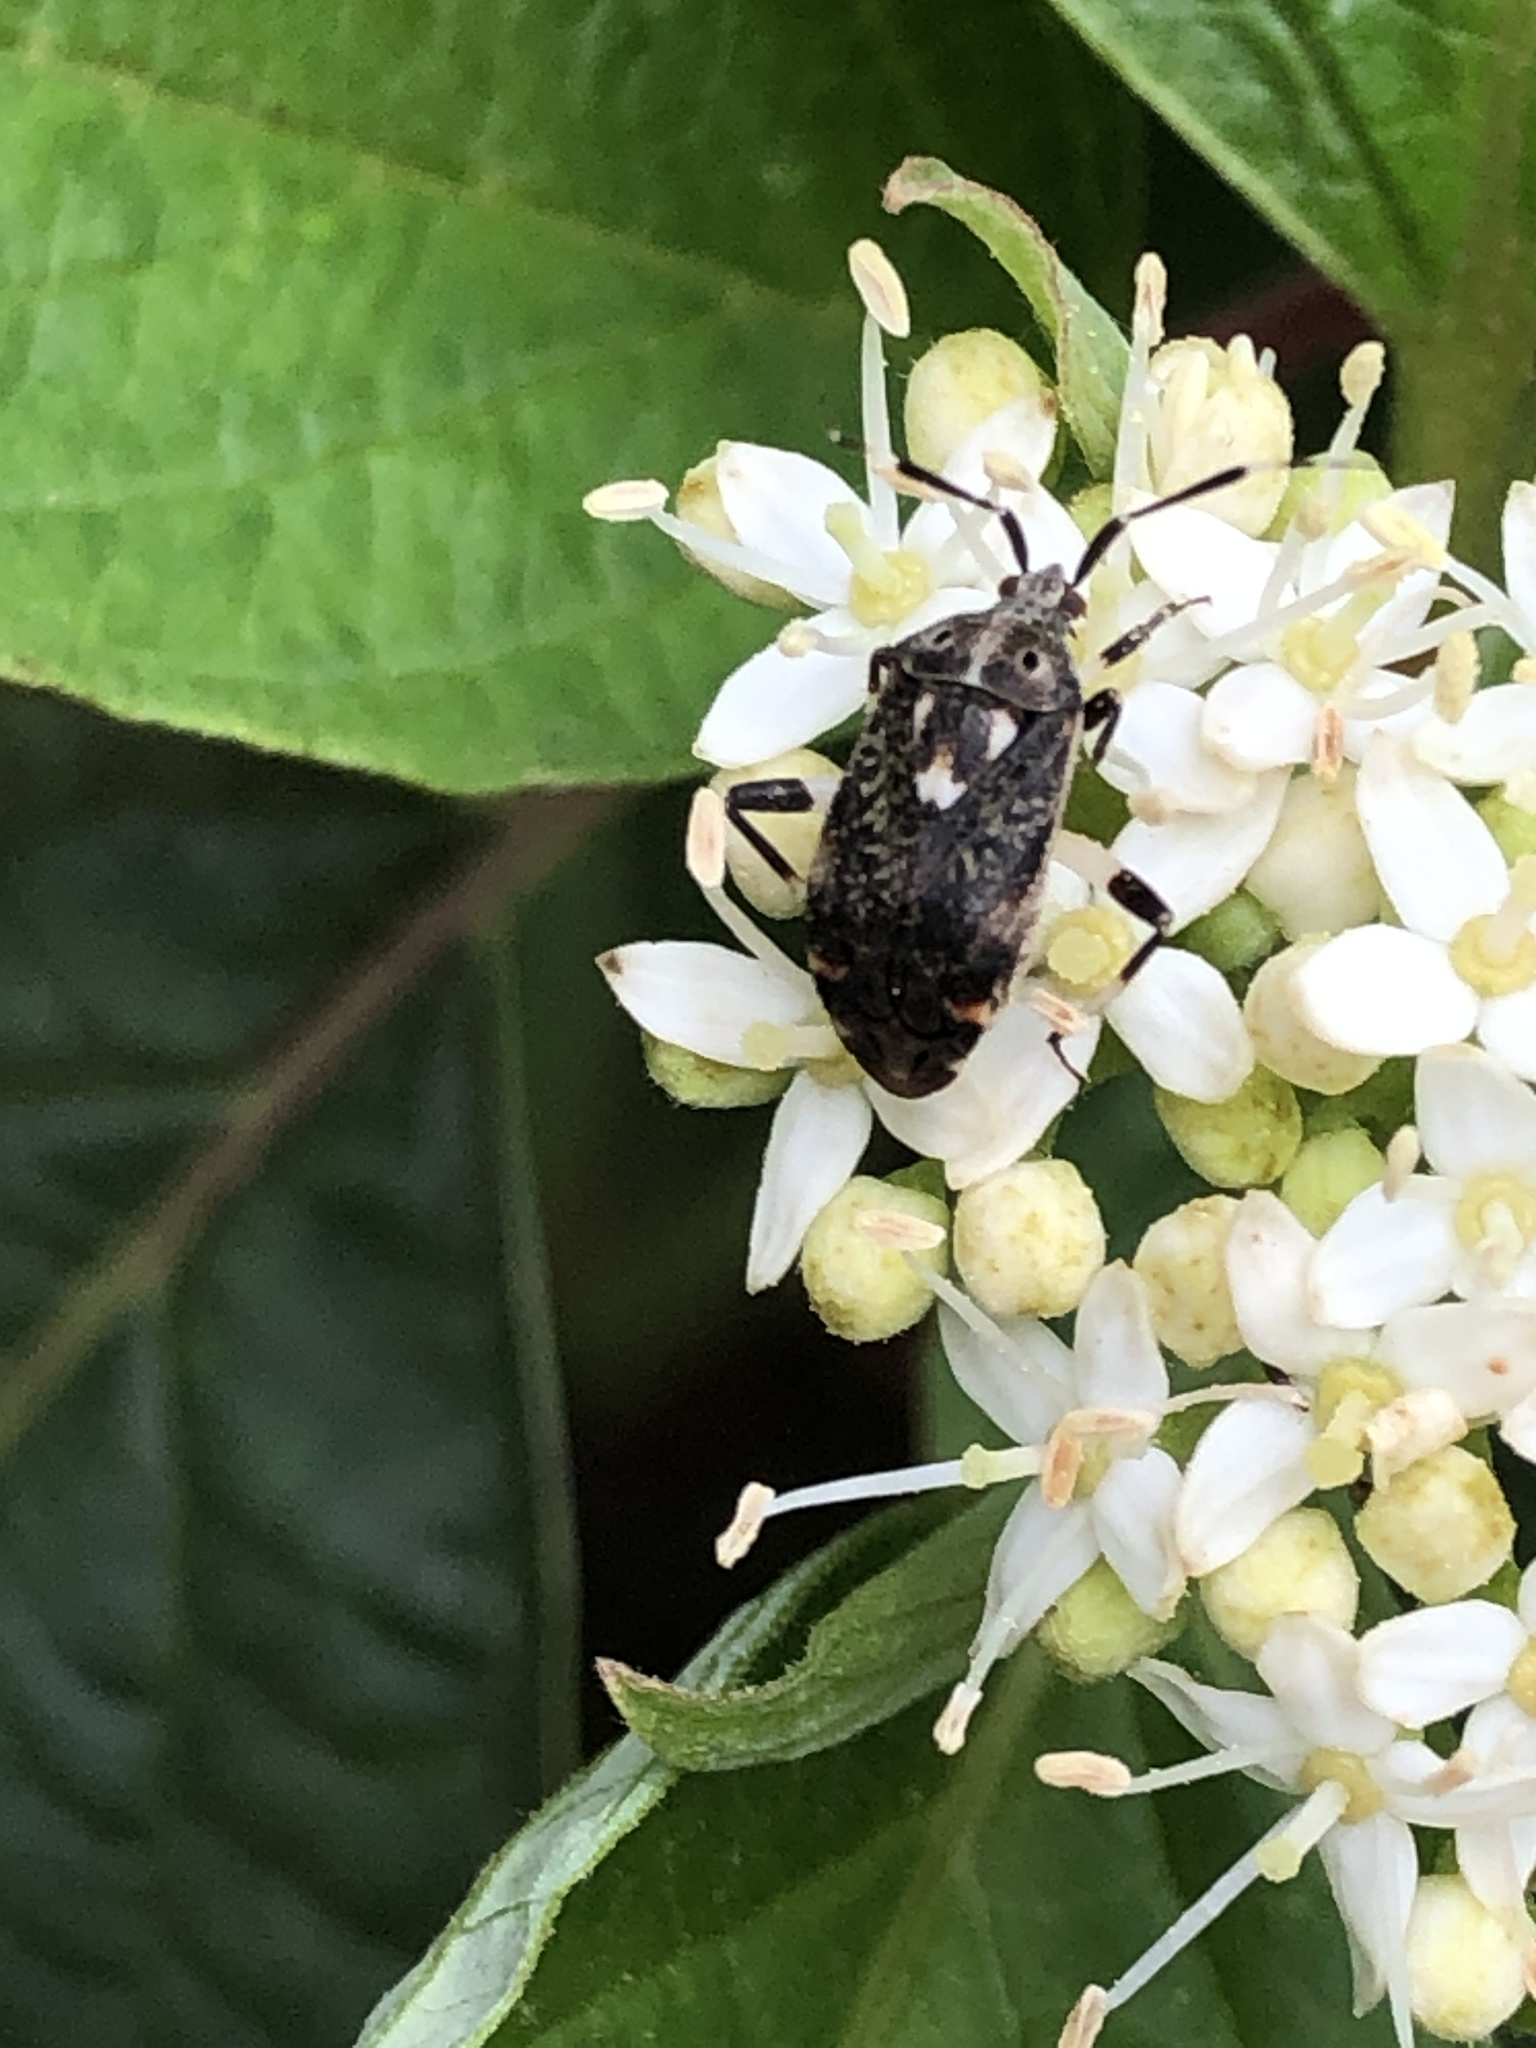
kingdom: Animalia
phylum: Arthropoda
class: Insecta
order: Hemiptera
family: Miridae
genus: Eurystylus
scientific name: Eurystylus coelestialium
